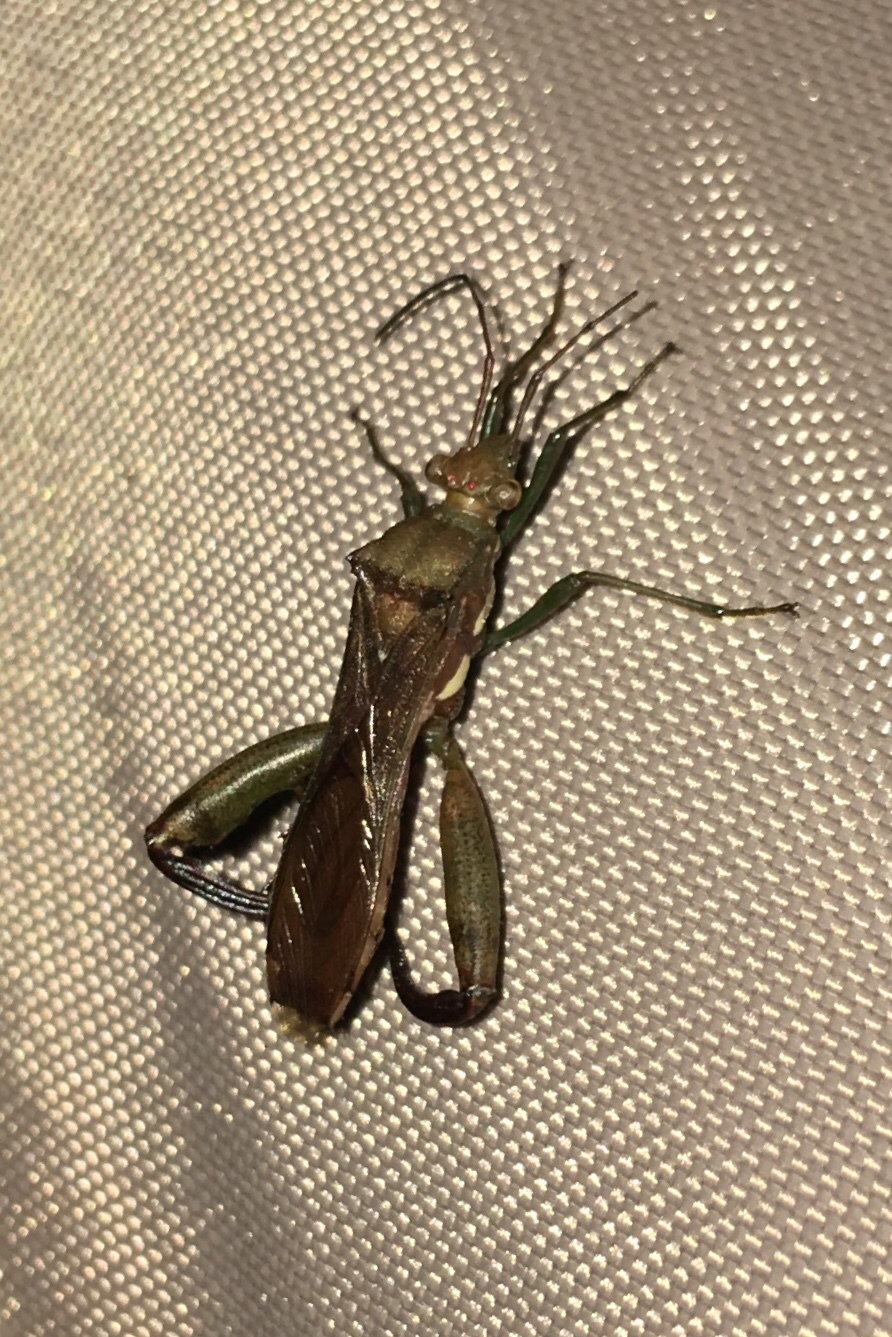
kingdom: Animalia
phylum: Arthropoda
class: Insecta
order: Hemiptera
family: Alydidae
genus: Hyalymenus
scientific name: Hyalymenus tarsatus
